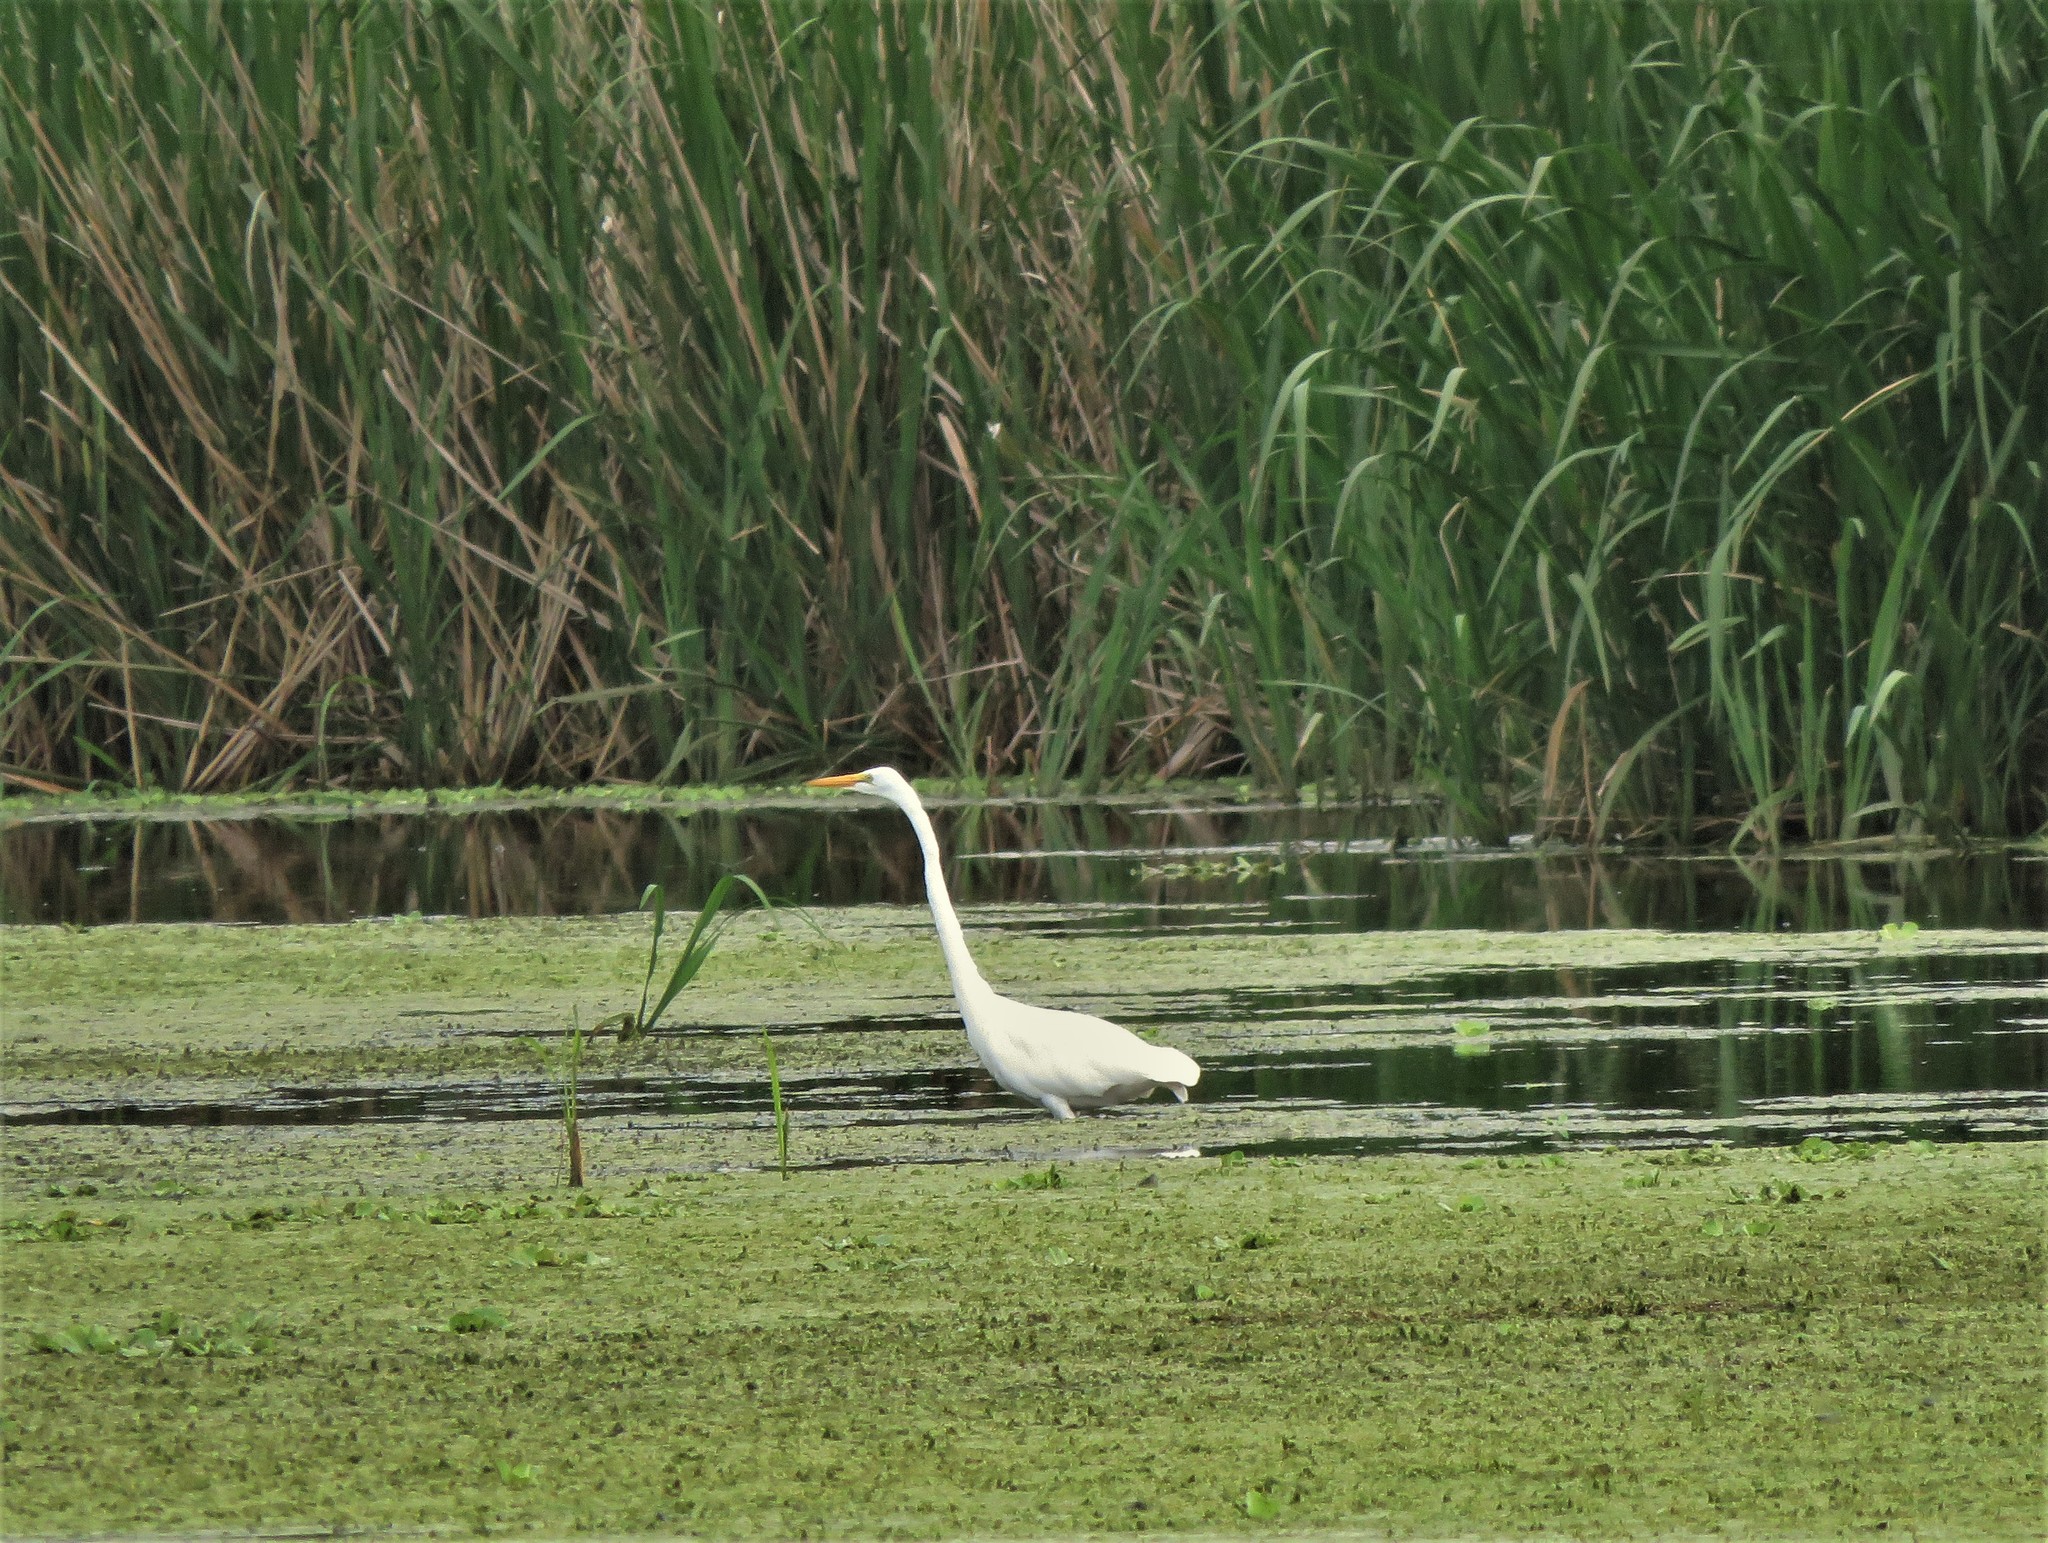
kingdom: Animalia
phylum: Chordata
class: Aves
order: Pelecaniformes
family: Ardeidae
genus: Ardea
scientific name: Ardea alba
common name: Great egret
